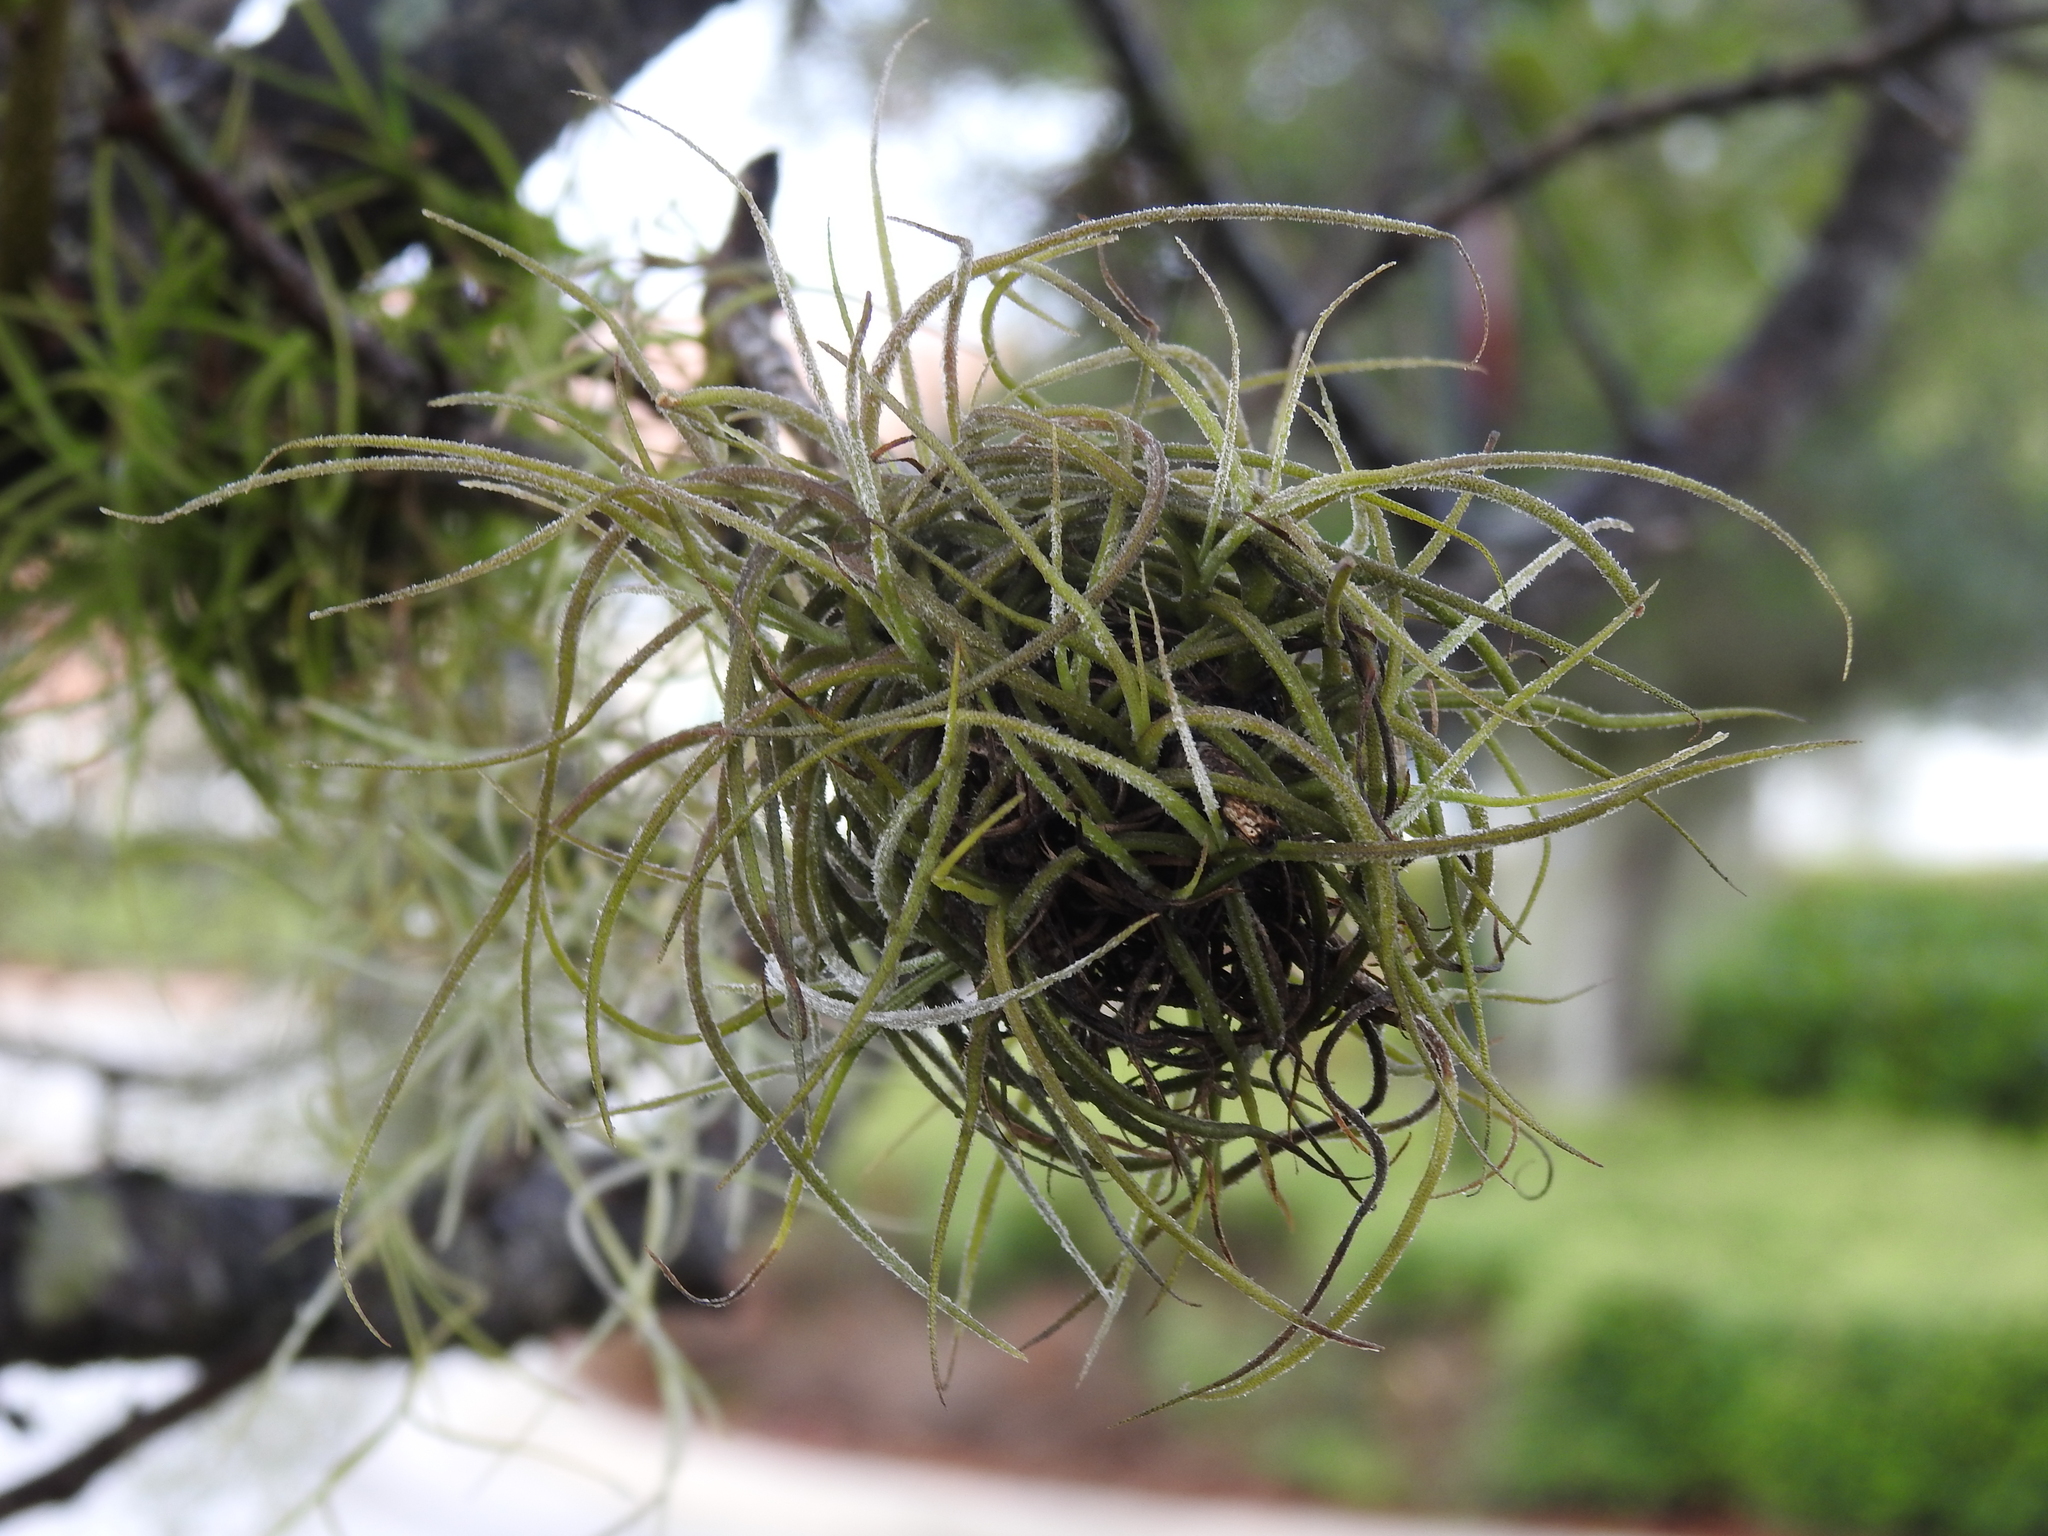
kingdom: Plantae
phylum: Tracheophyta
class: Liliopsida
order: Poales
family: Bromeliaceae
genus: Tillandsia
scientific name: Tillandsia recurvata
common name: Small ballmoss
